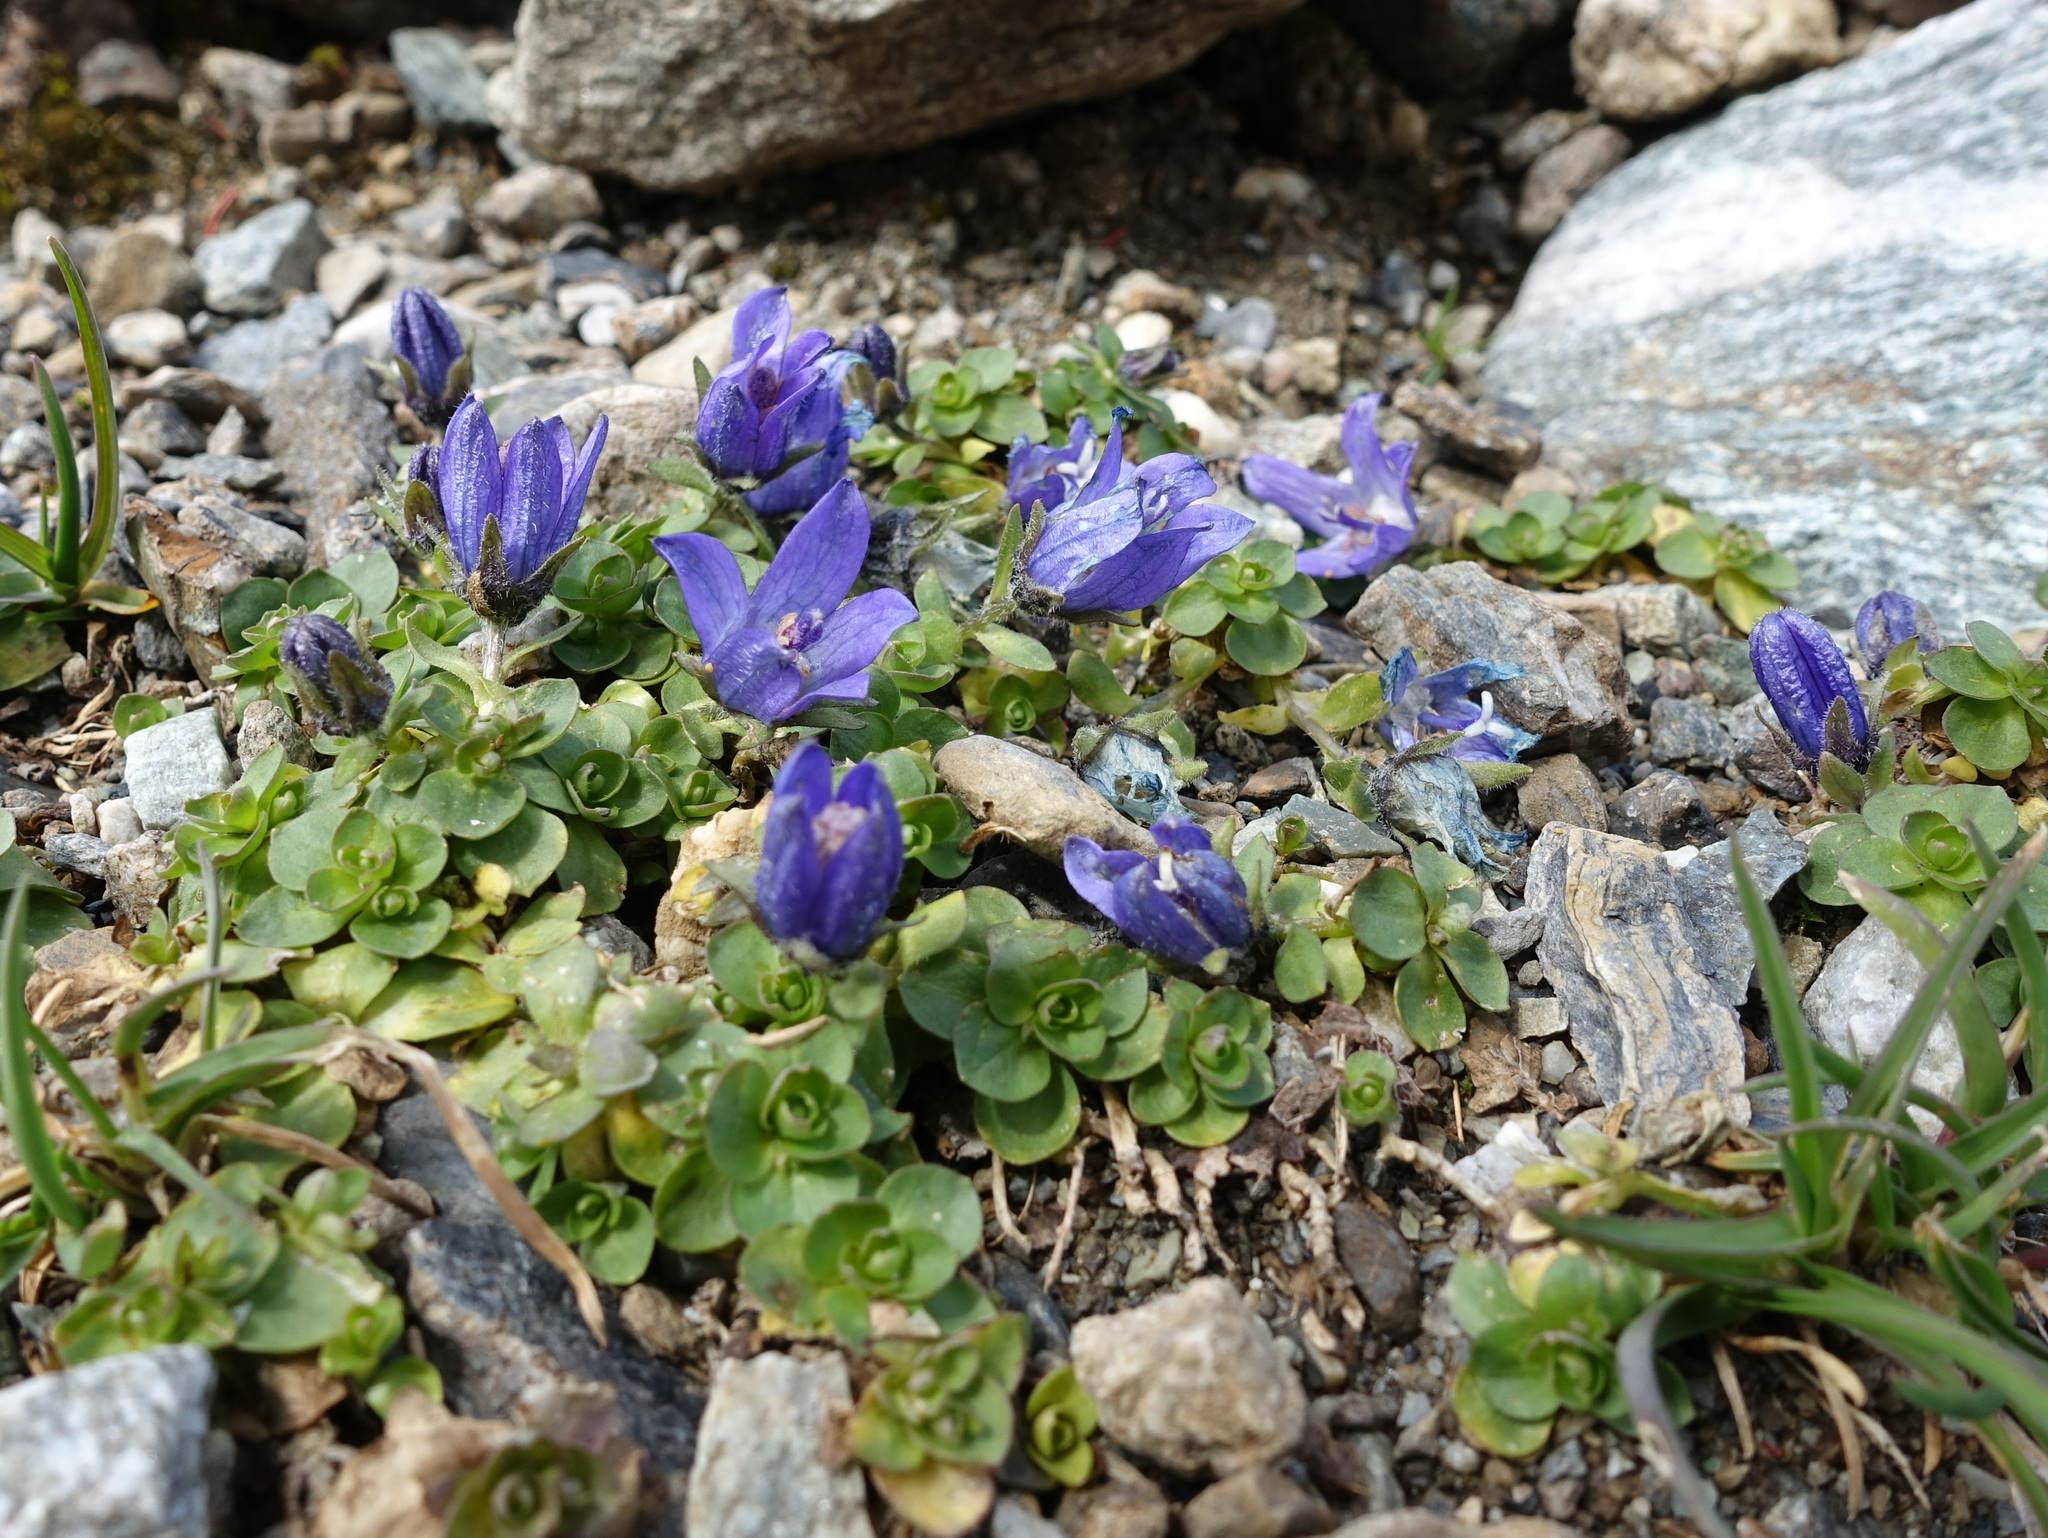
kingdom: Plantae
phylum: Tracheophyta
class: Magnoliopsida
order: Asterales
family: Campanulaceae
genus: Campanula
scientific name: Campanula cenisia
